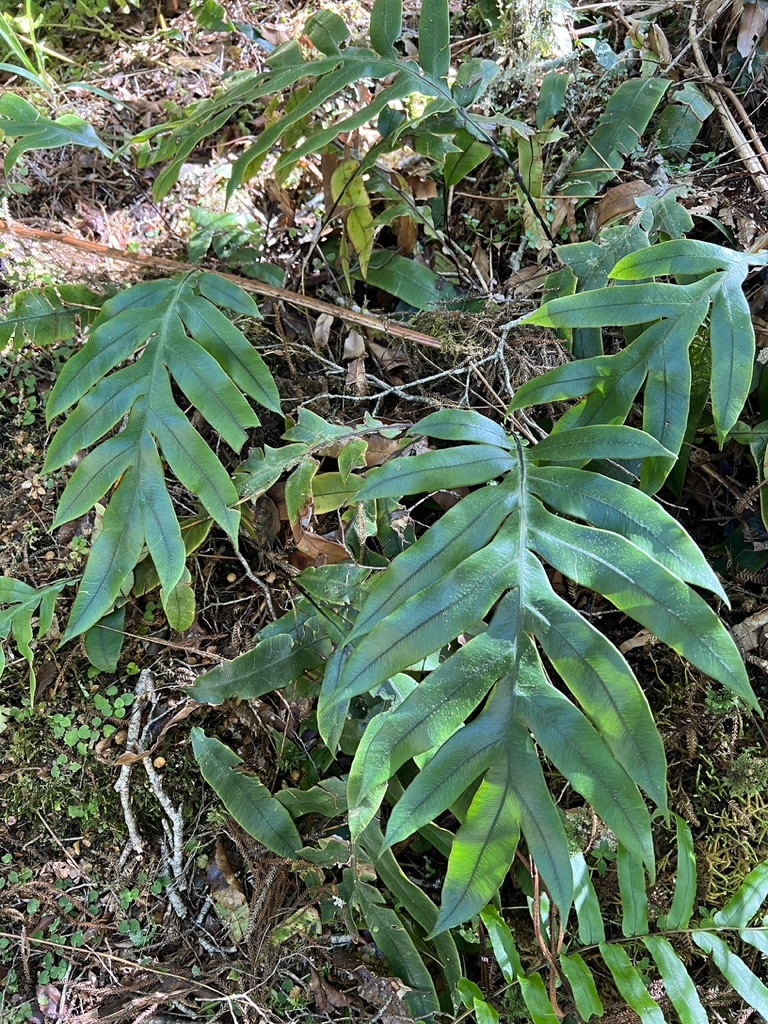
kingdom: Plantae
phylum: Tracheophyta
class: Polypodiopsida
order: Polypodiales
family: Blechnaceae
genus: Austroblechnum
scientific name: Austroblechnum colensoi
